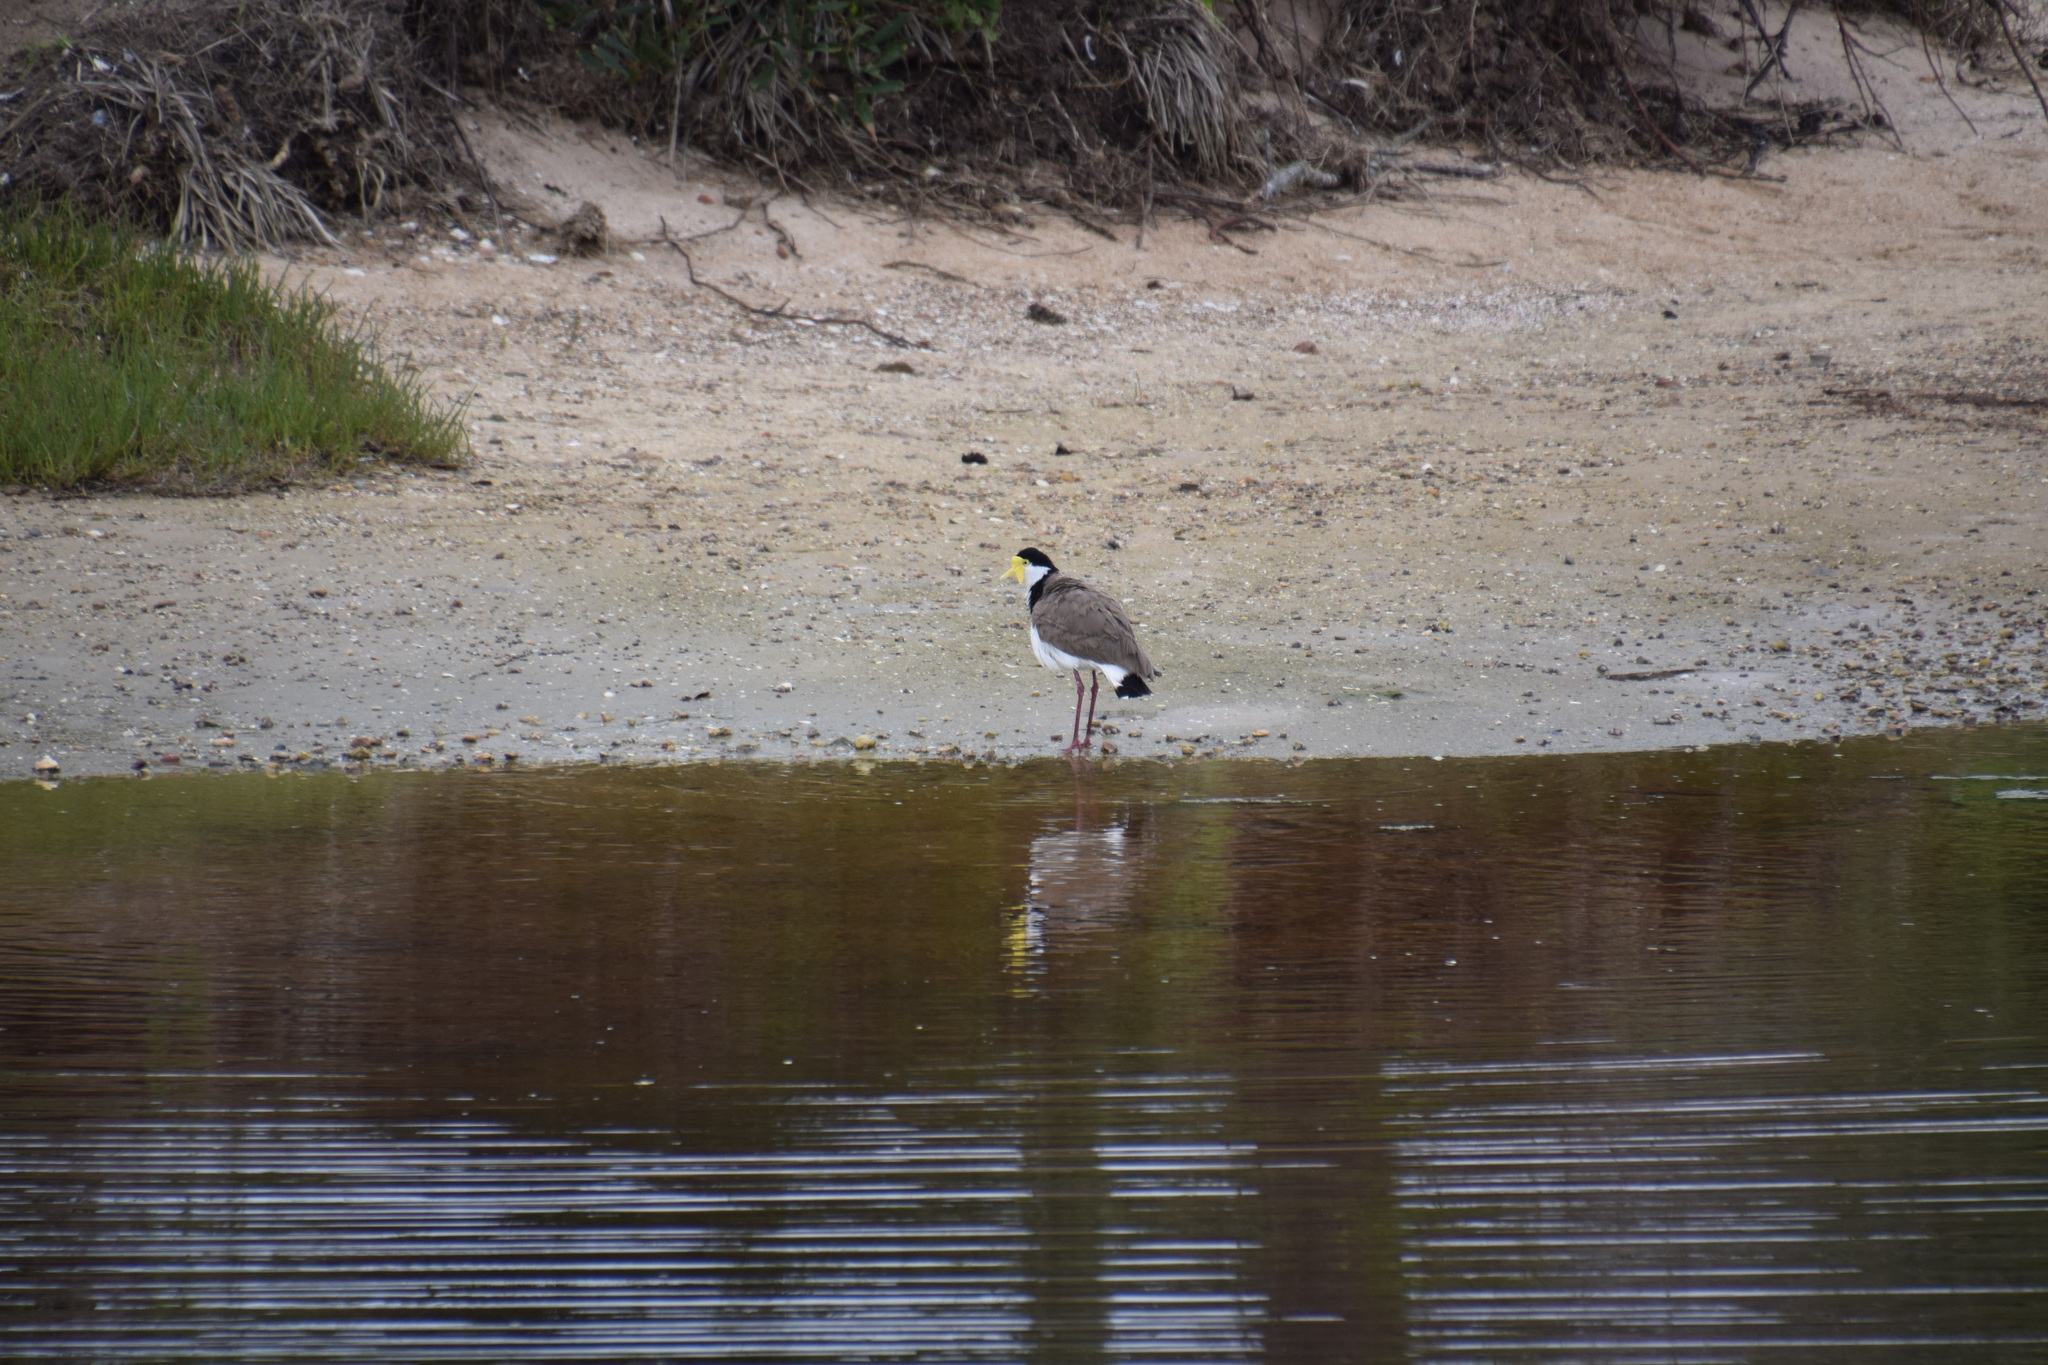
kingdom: Animalia
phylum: Chordata
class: Aves
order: Charadriiformes
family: Charadriidae
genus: Vanellus
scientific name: Vanellus miles
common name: Masked lapwing
